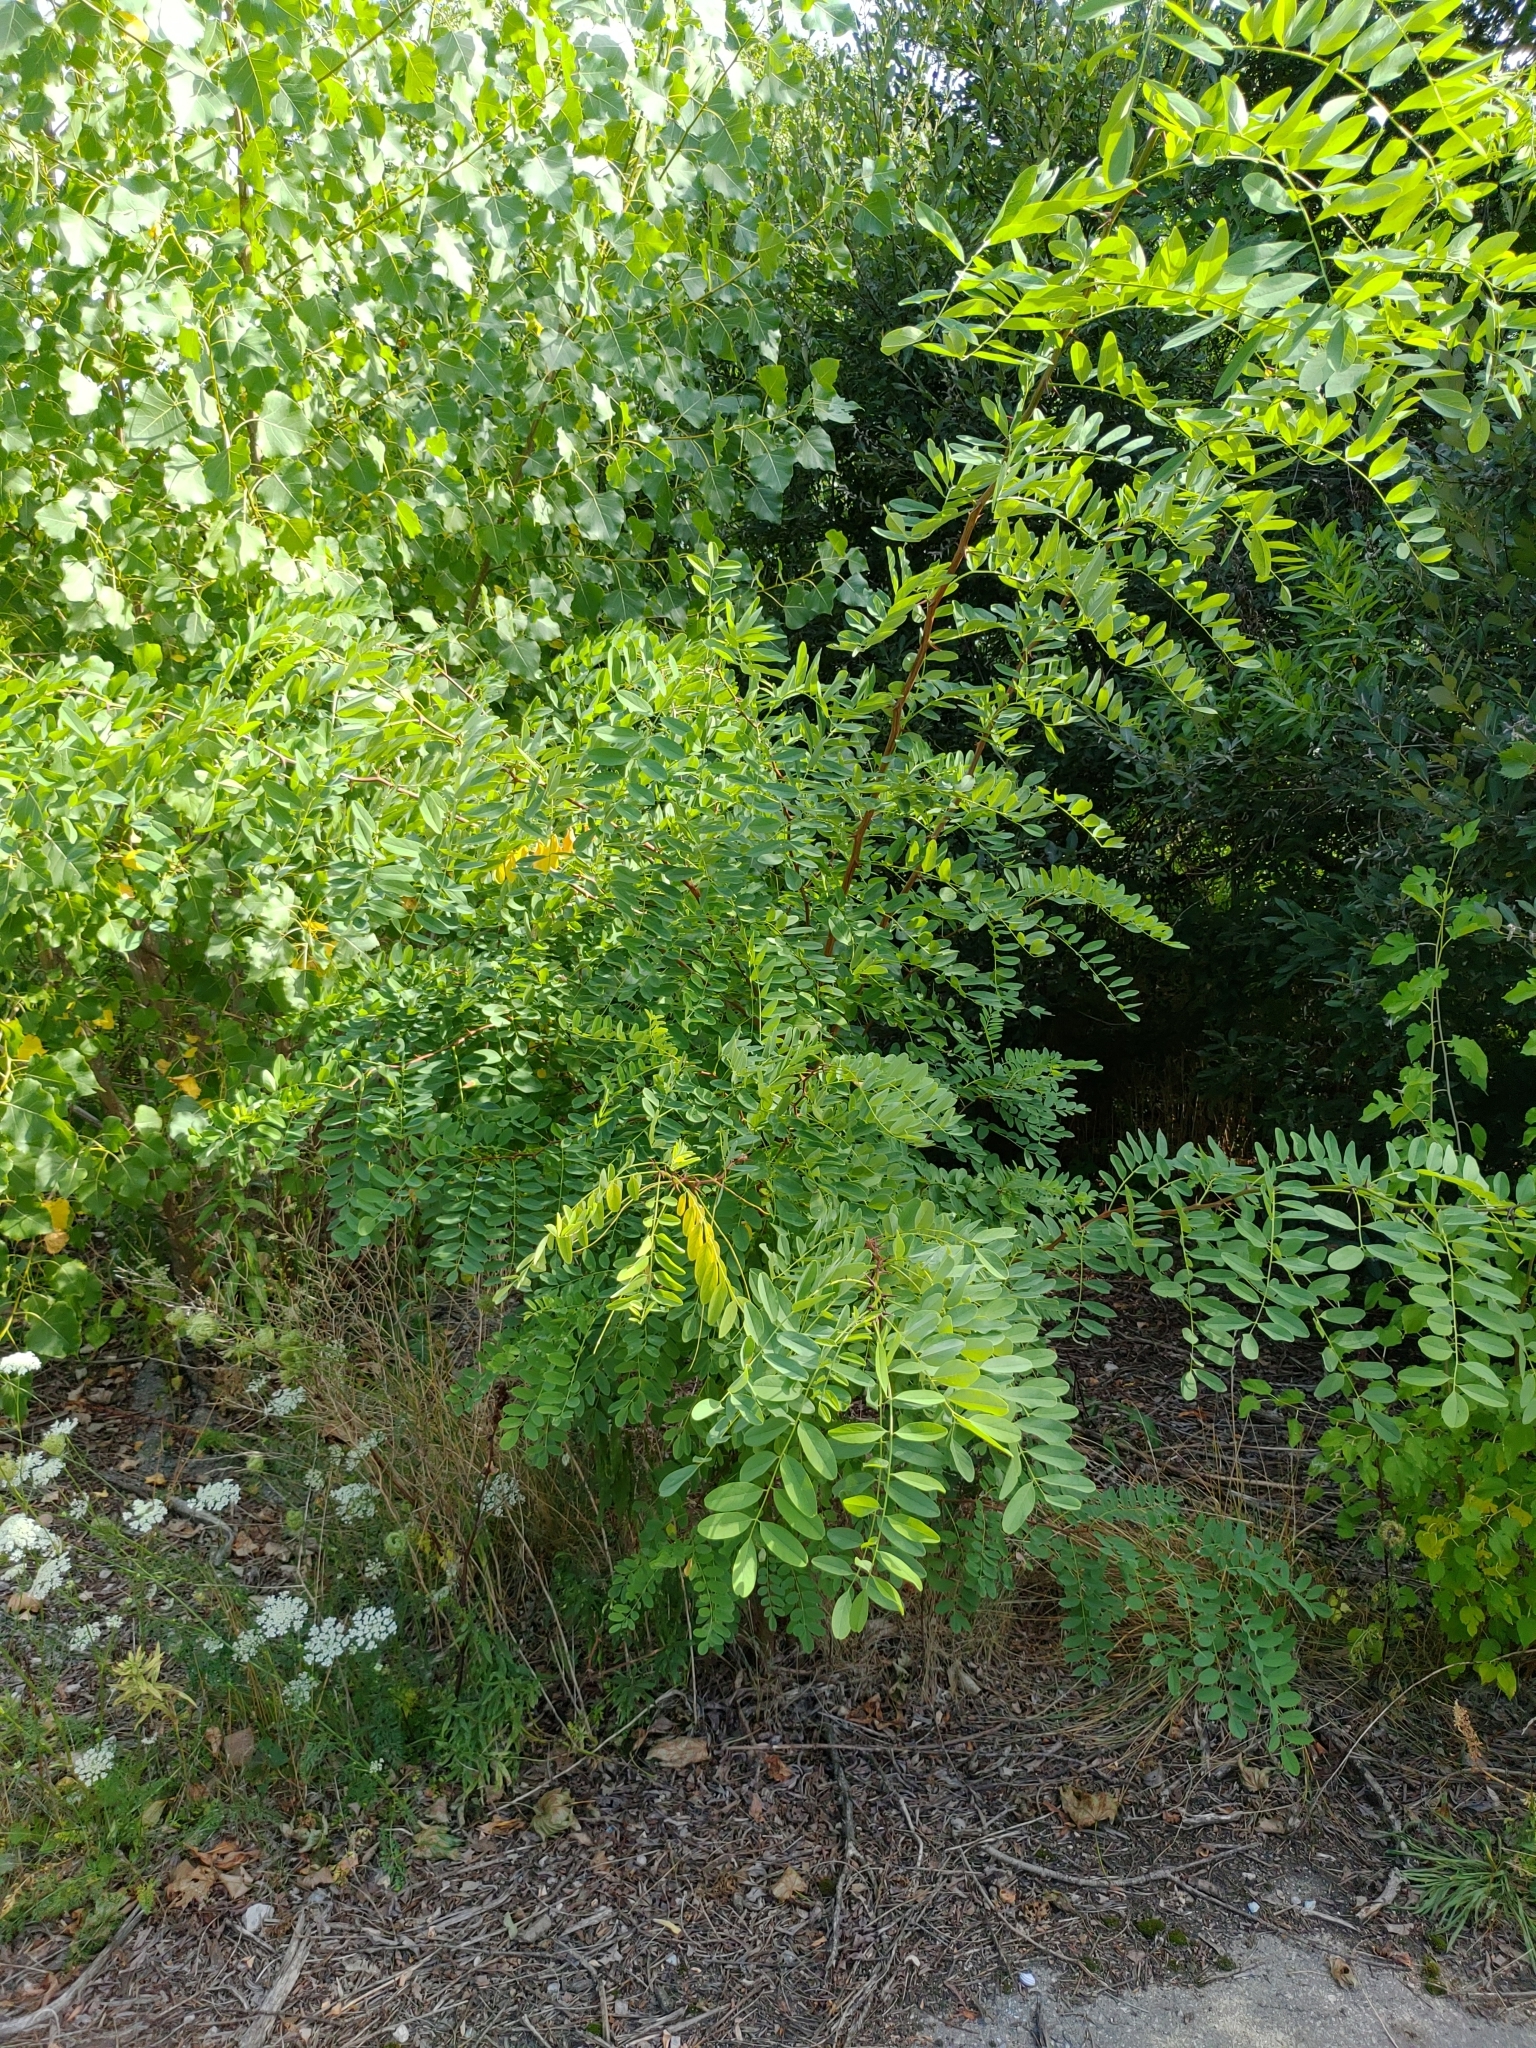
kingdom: Plantae
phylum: Tracheophyta
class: Magnoliopsida
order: Fabales
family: Fabaceae
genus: Robinia
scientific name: Robinia pseudoacacia
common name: Black locust
